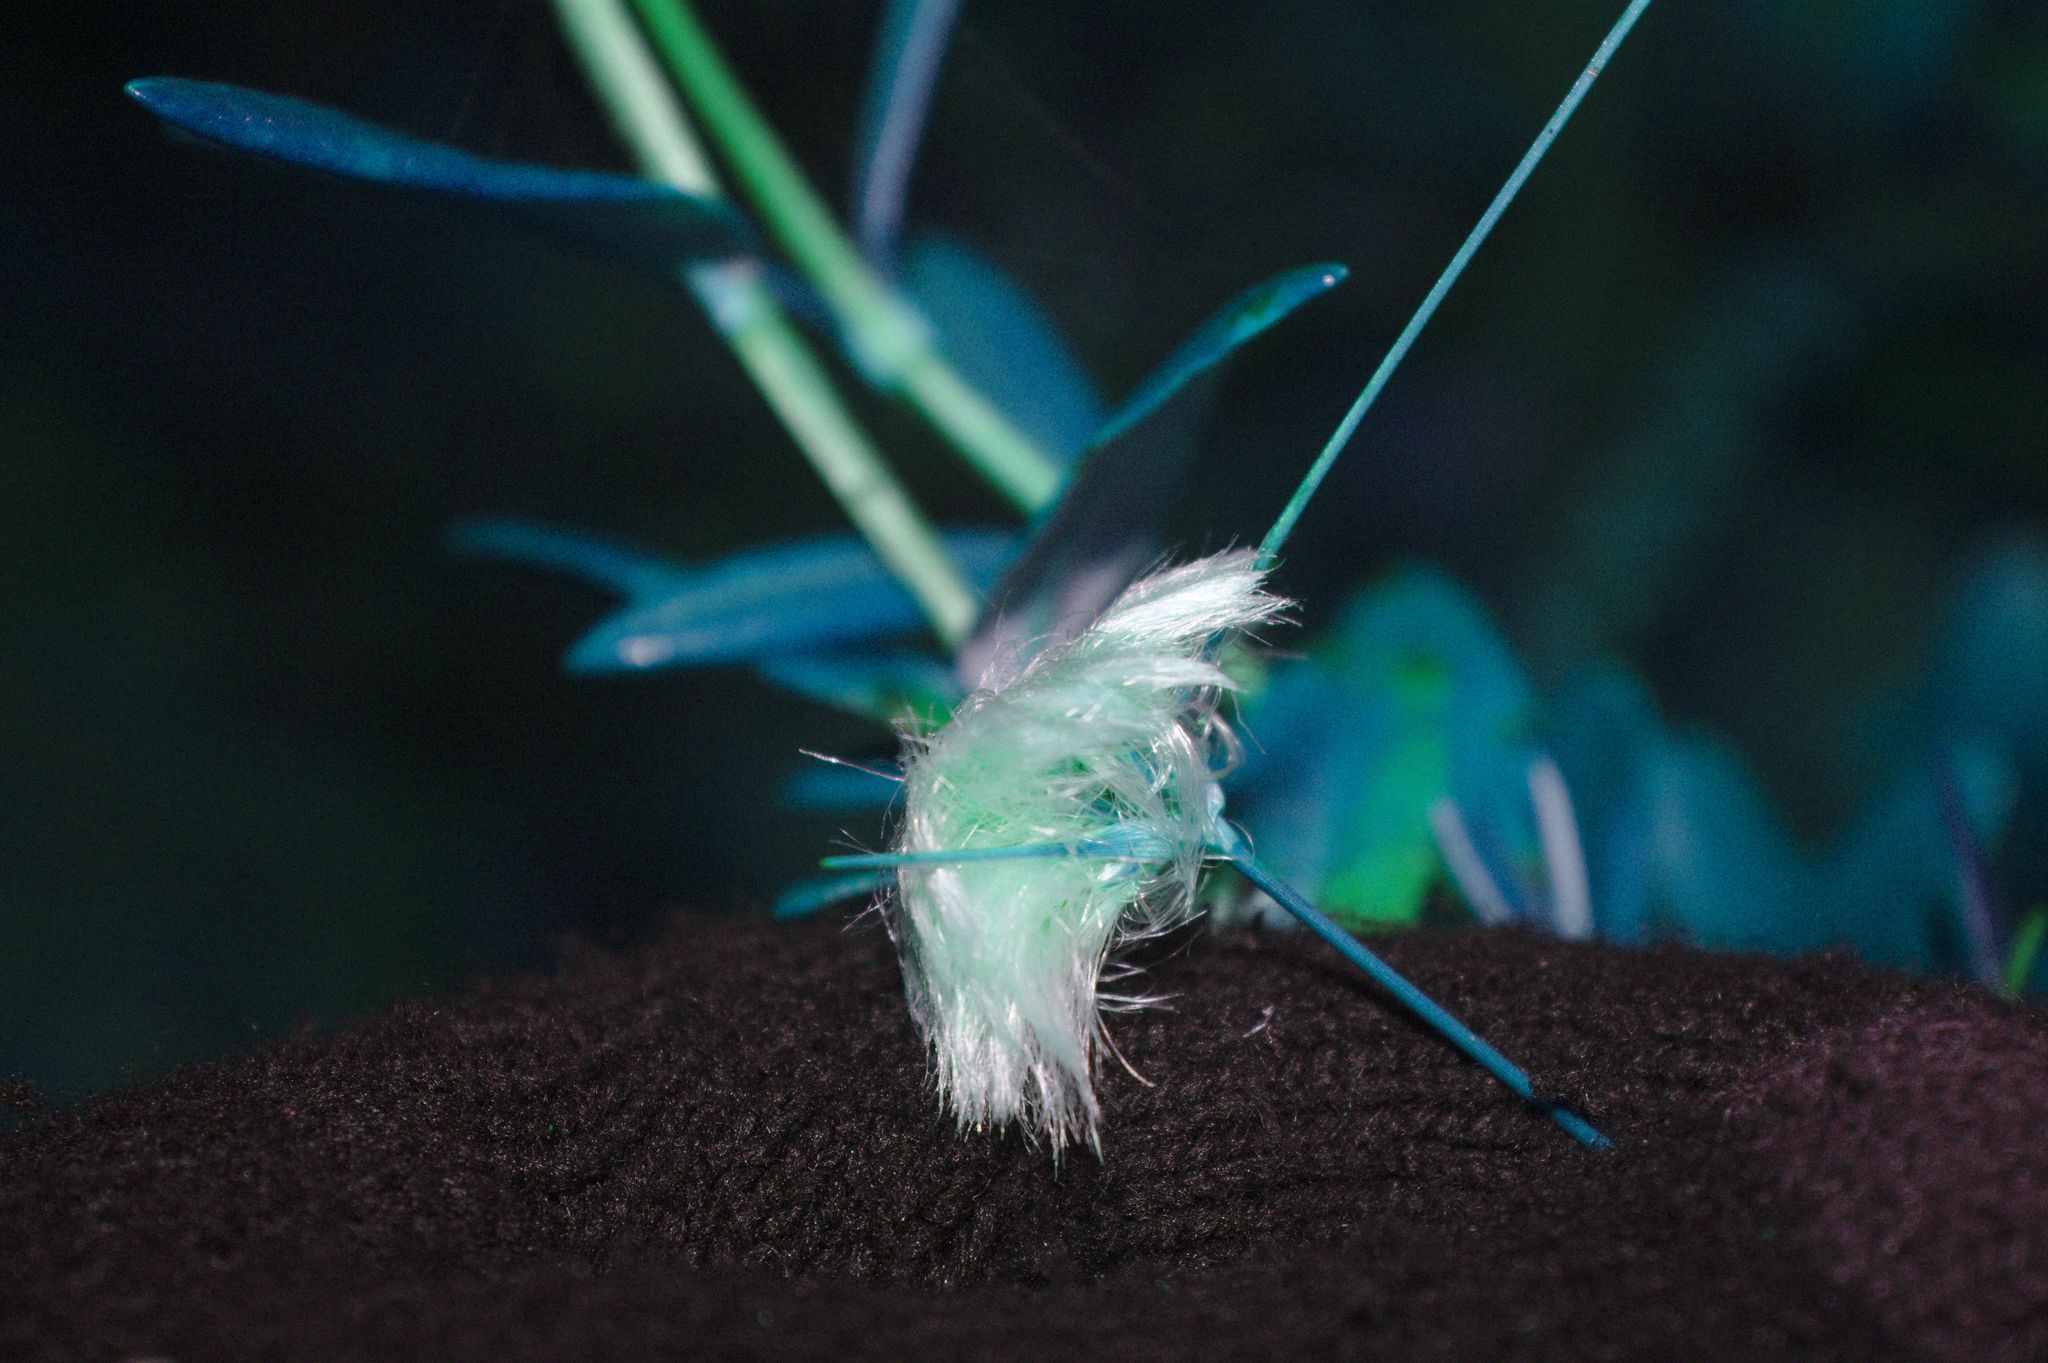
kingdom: Plantae
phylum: Tracheophyta
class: Liliopsida
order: Poales
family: Cyperaceae
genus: Eriophorum
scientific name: Eriophorum virginicum
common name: Tawny cottongrass
